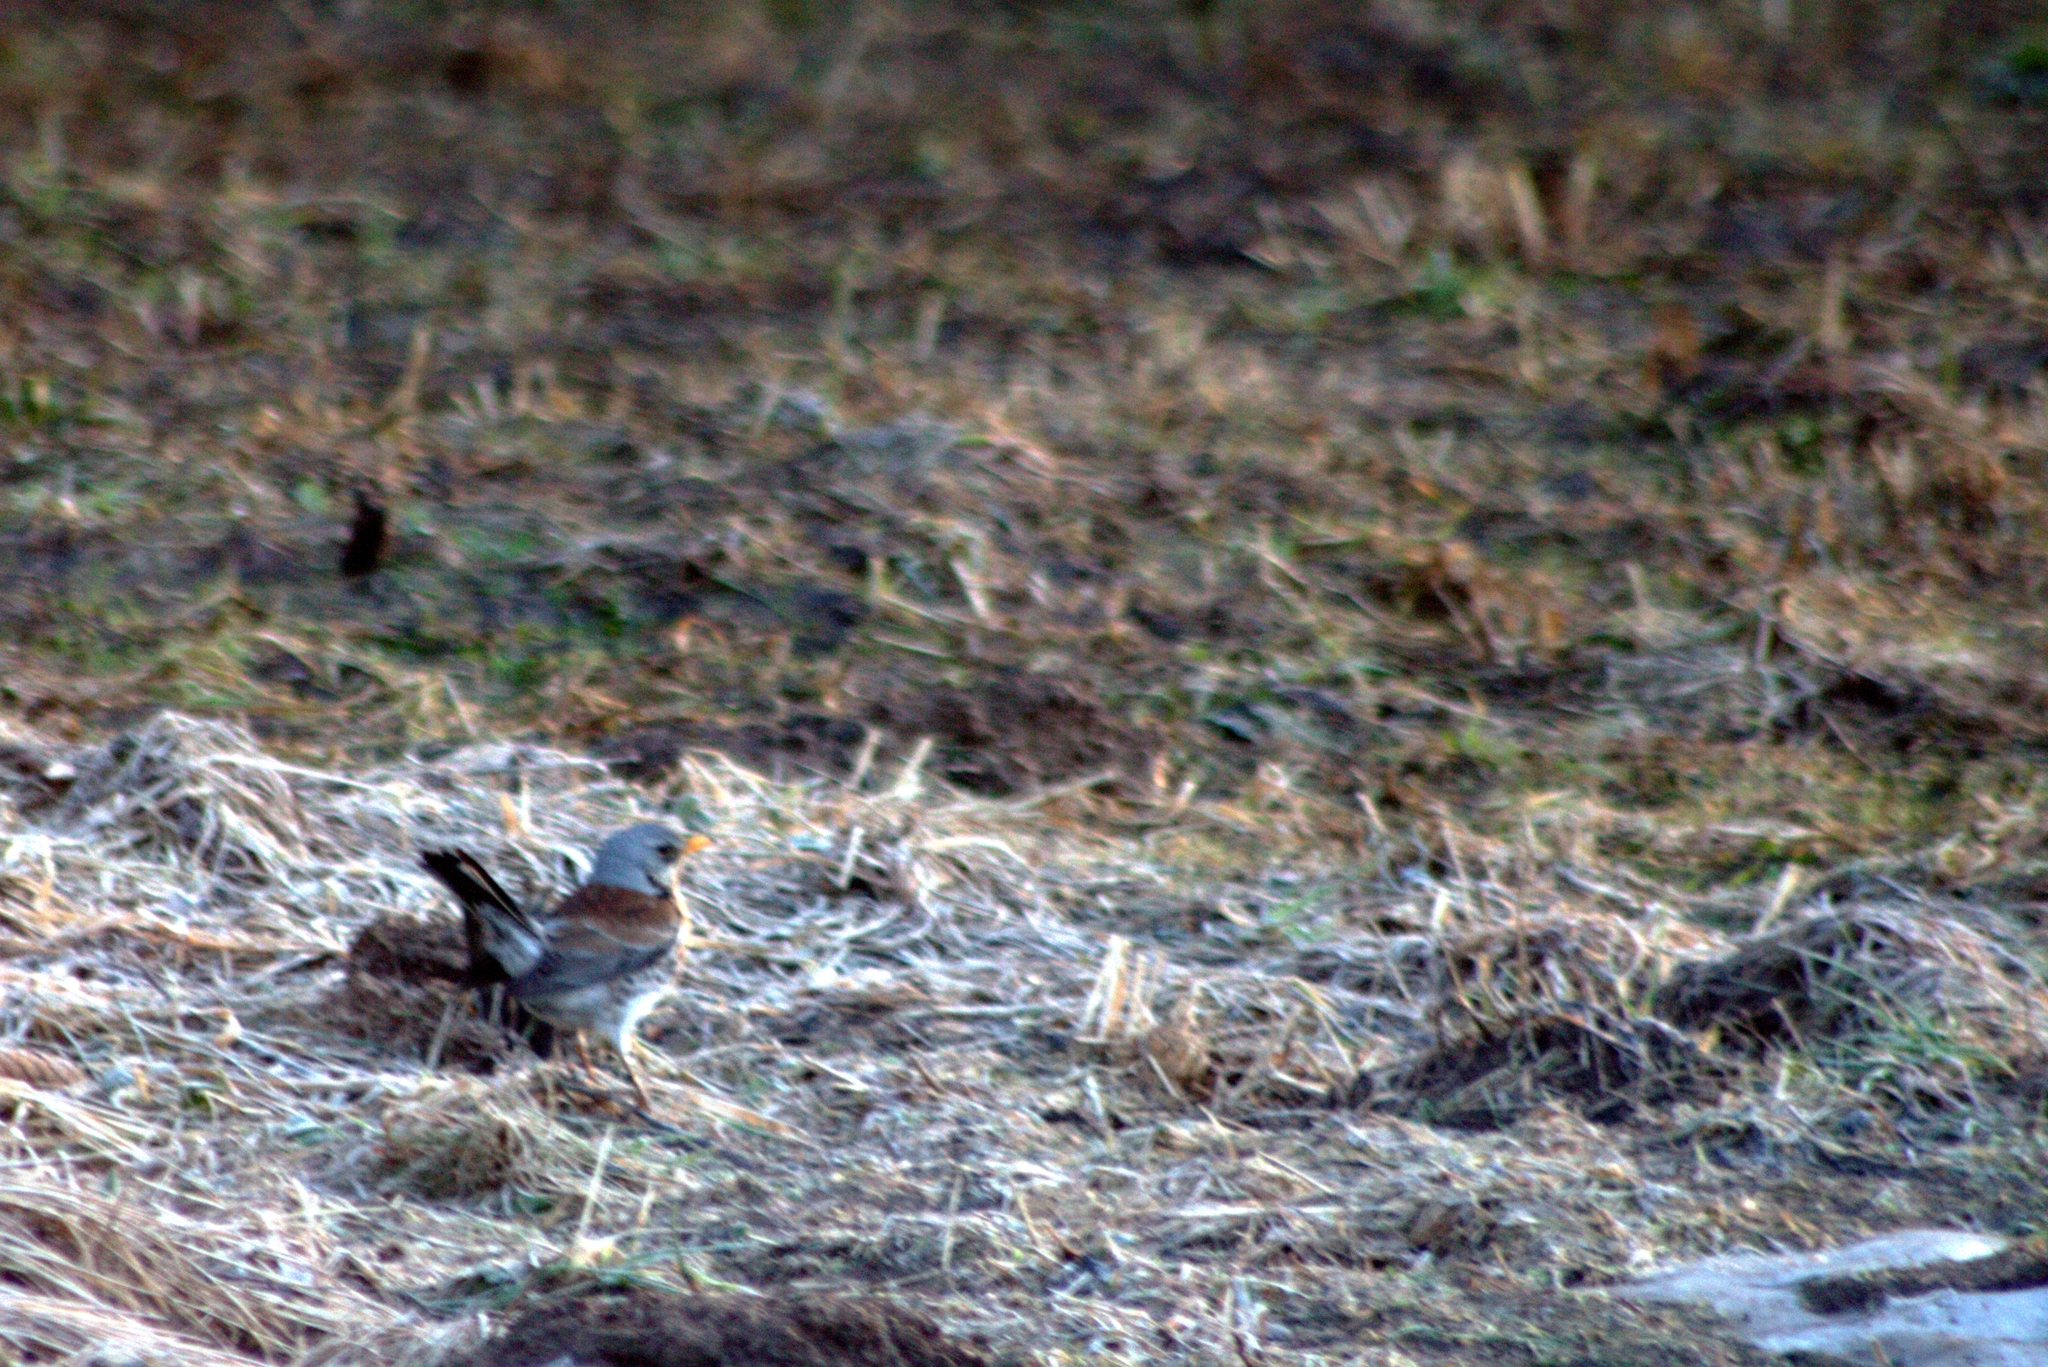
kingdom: Animalia
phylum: Chordata
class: Aves
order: Passeriformes
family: Turdidae
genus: Turdus
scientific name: Turdus pilaris
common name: Fieldfare
